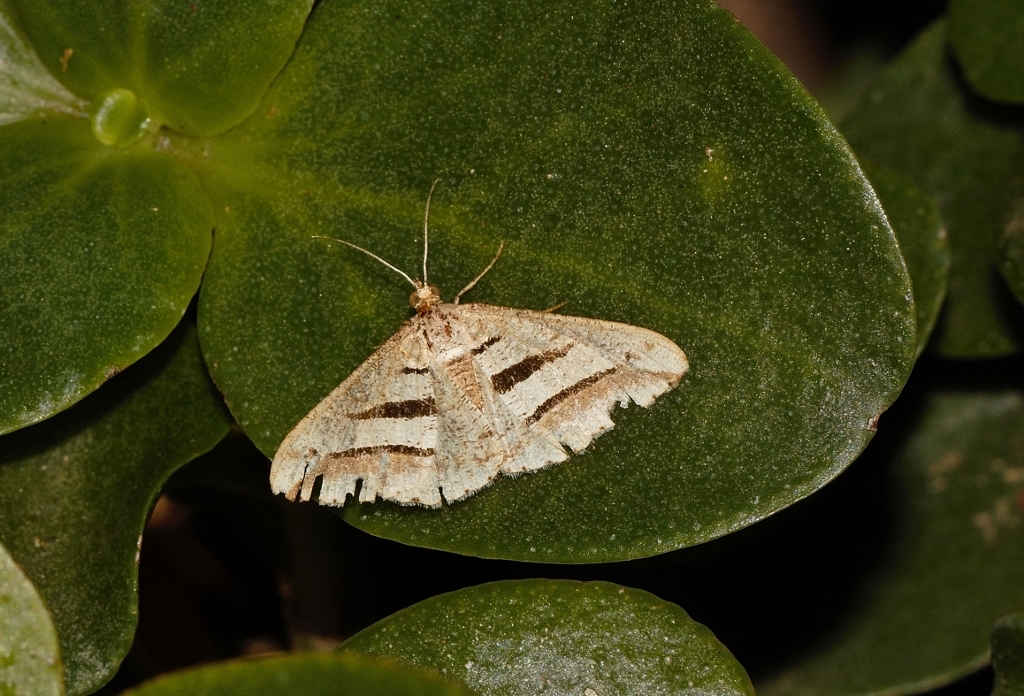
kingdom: Animalia
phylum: Arthropoda
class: Insecta
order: Lepidoptera
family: Geometridae
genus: Chiasmia
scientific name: Chiasmia subcurvaria
